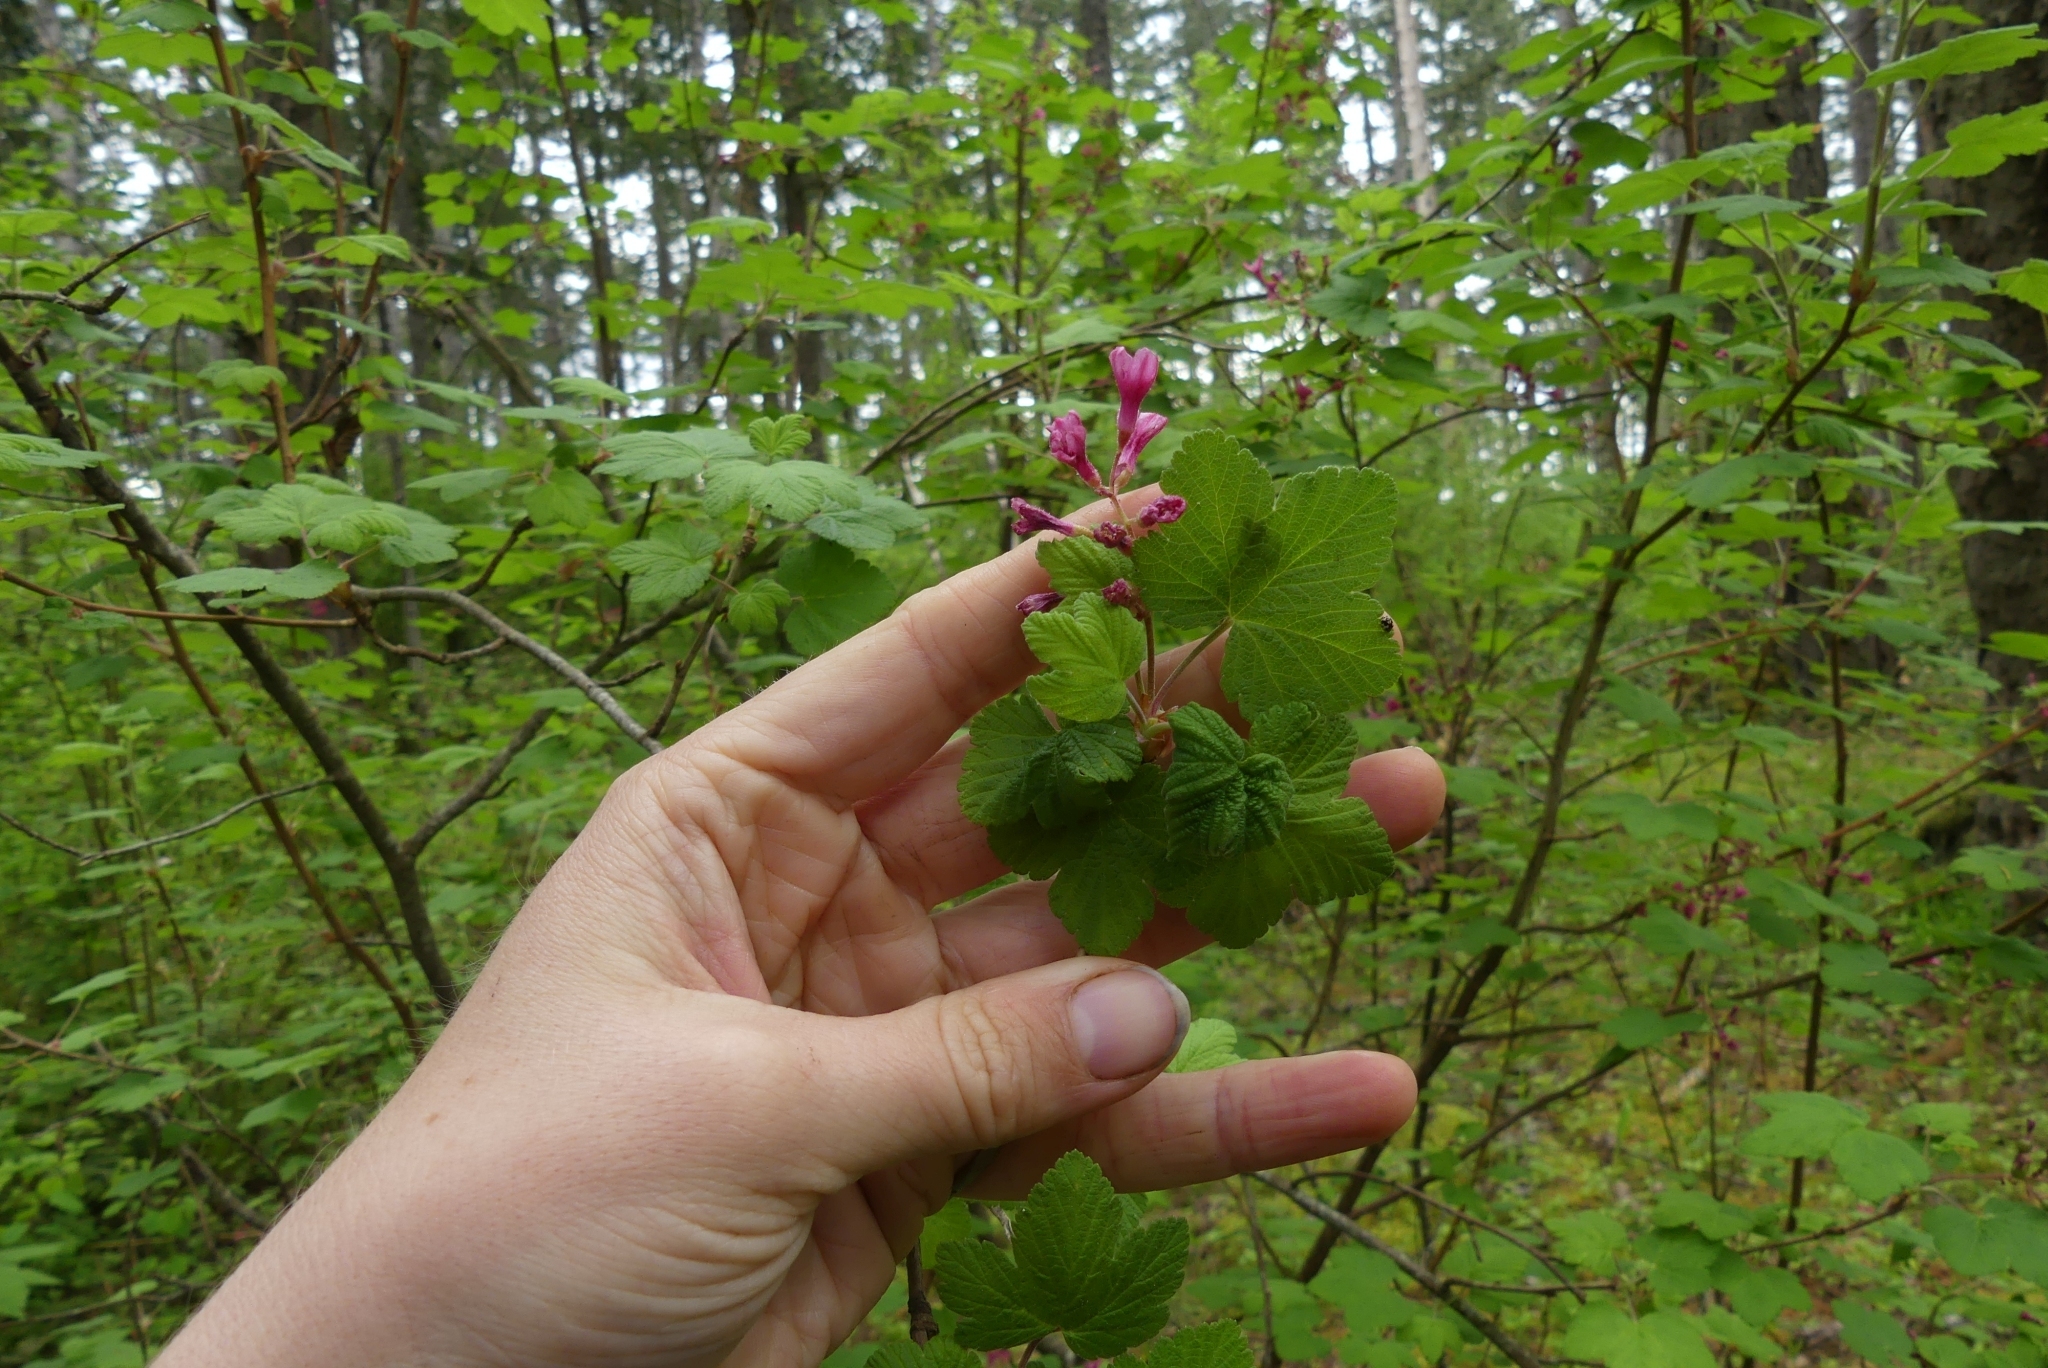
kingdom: Plantae
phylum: Tracheophyta
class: Magnoliopsida
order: Saxifragales
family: Grossulariaceae
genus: Ribes
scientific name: Ribes sanguineum
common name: Flowering currant
